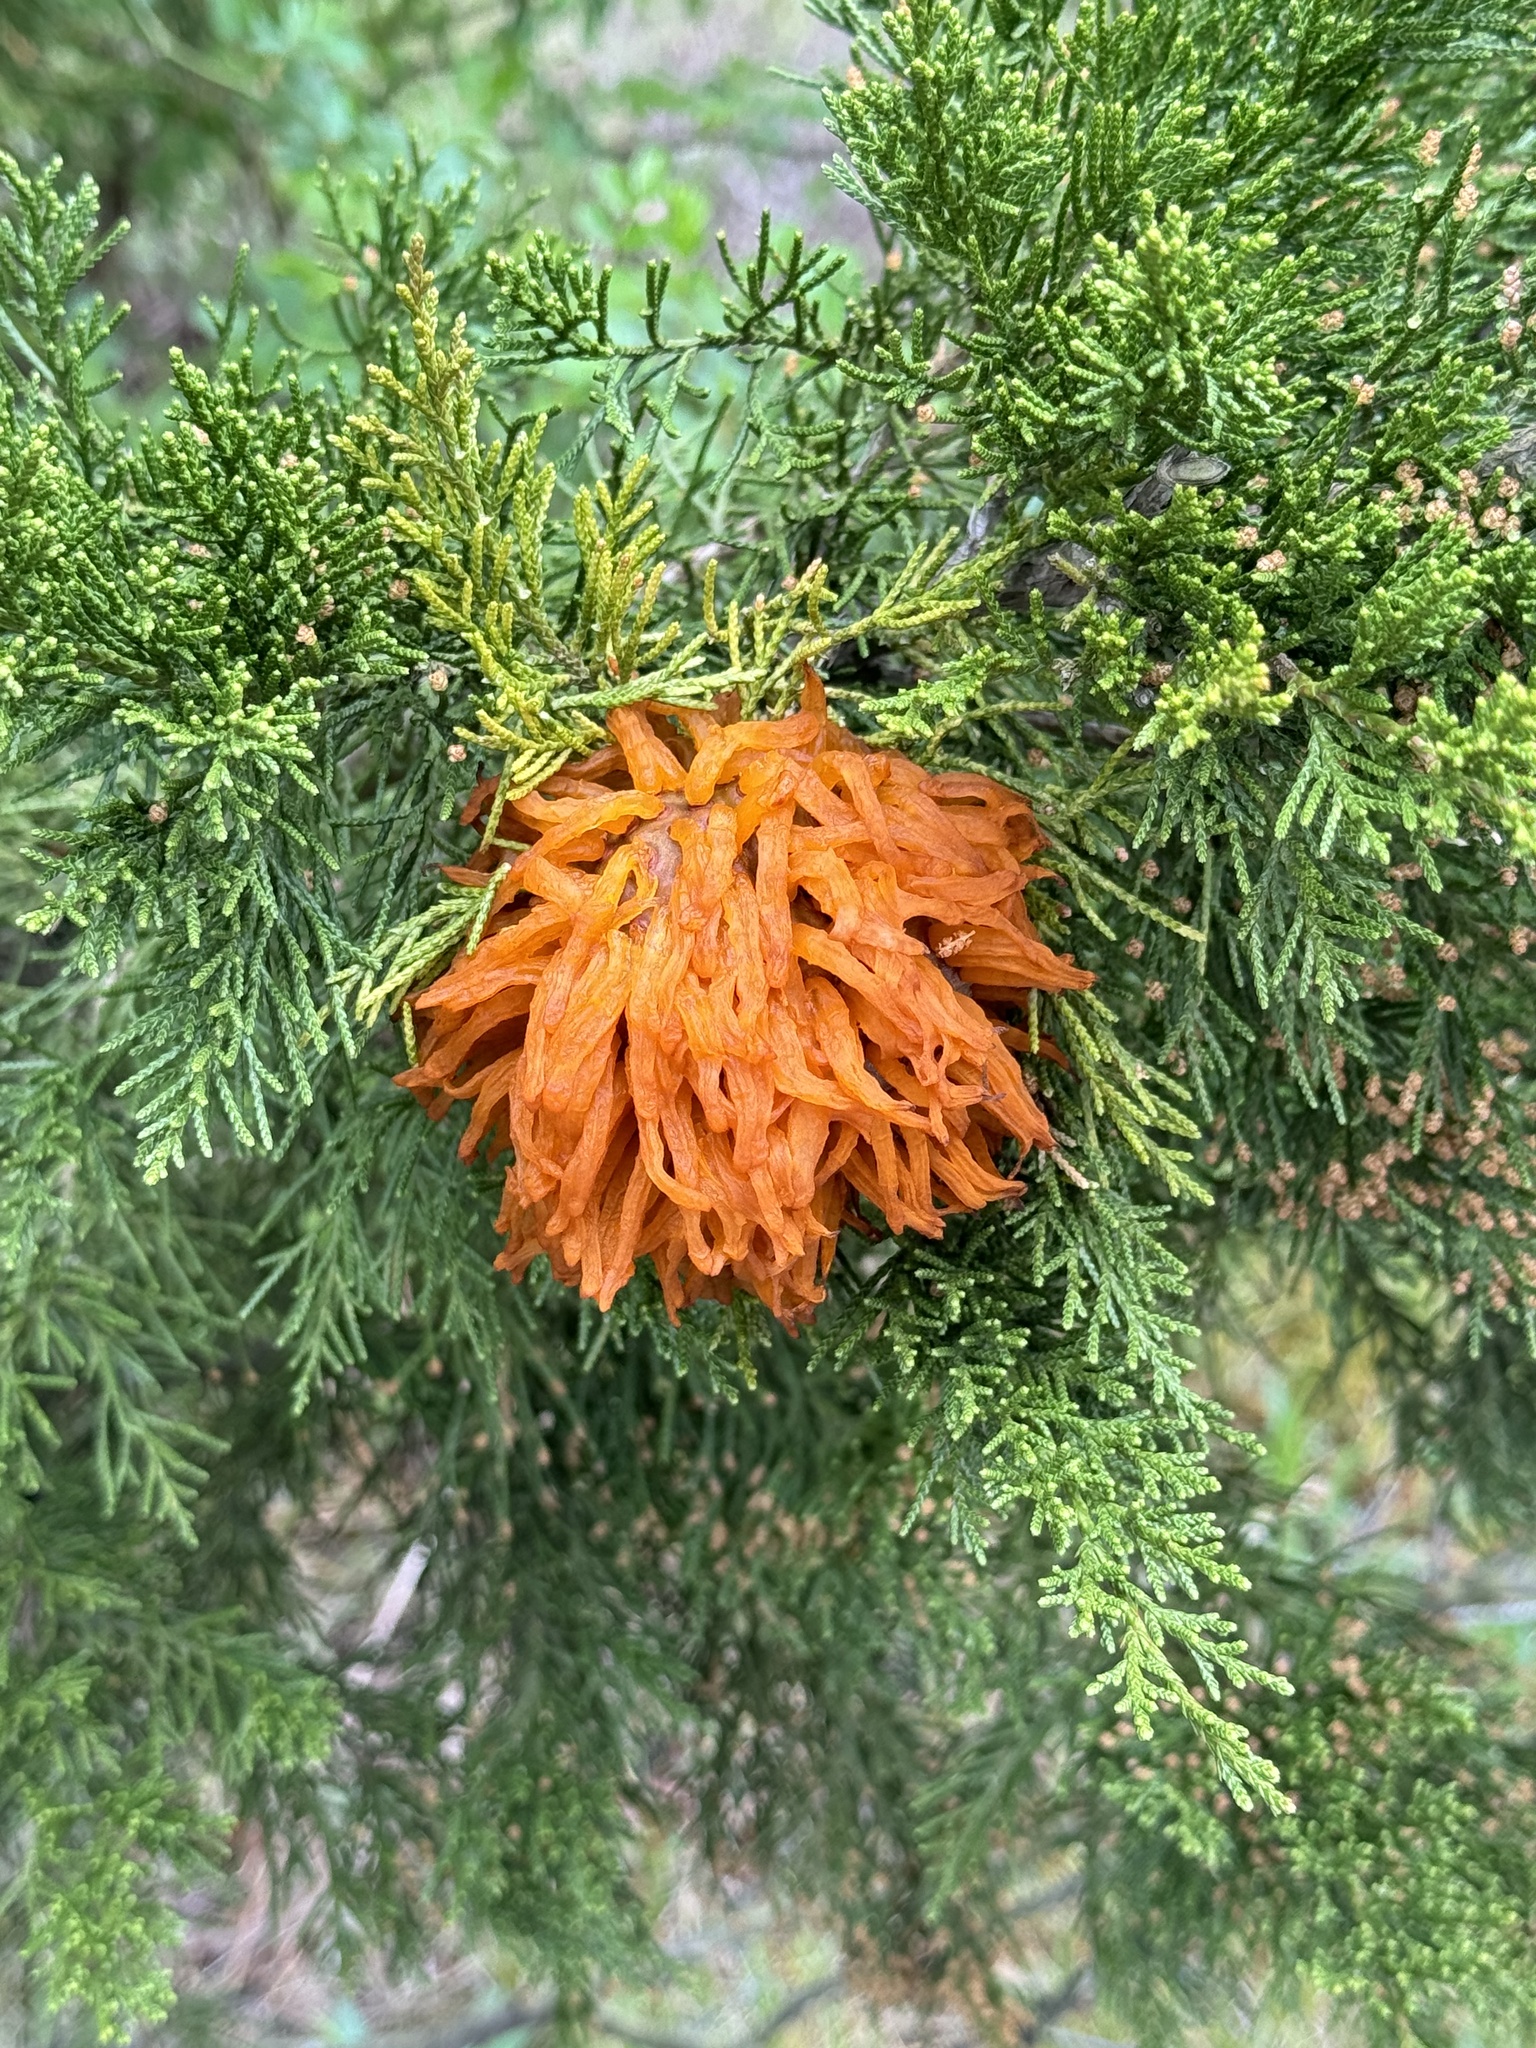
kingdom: Fungi
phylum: Basidiomycota
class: Pucciniomycetes
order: Pucciniales
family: Gymnosporangiaceae
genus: Gymnosporangium
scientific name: Gymnosporangium juniperi-virginianae
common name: Juniper-apple rust
